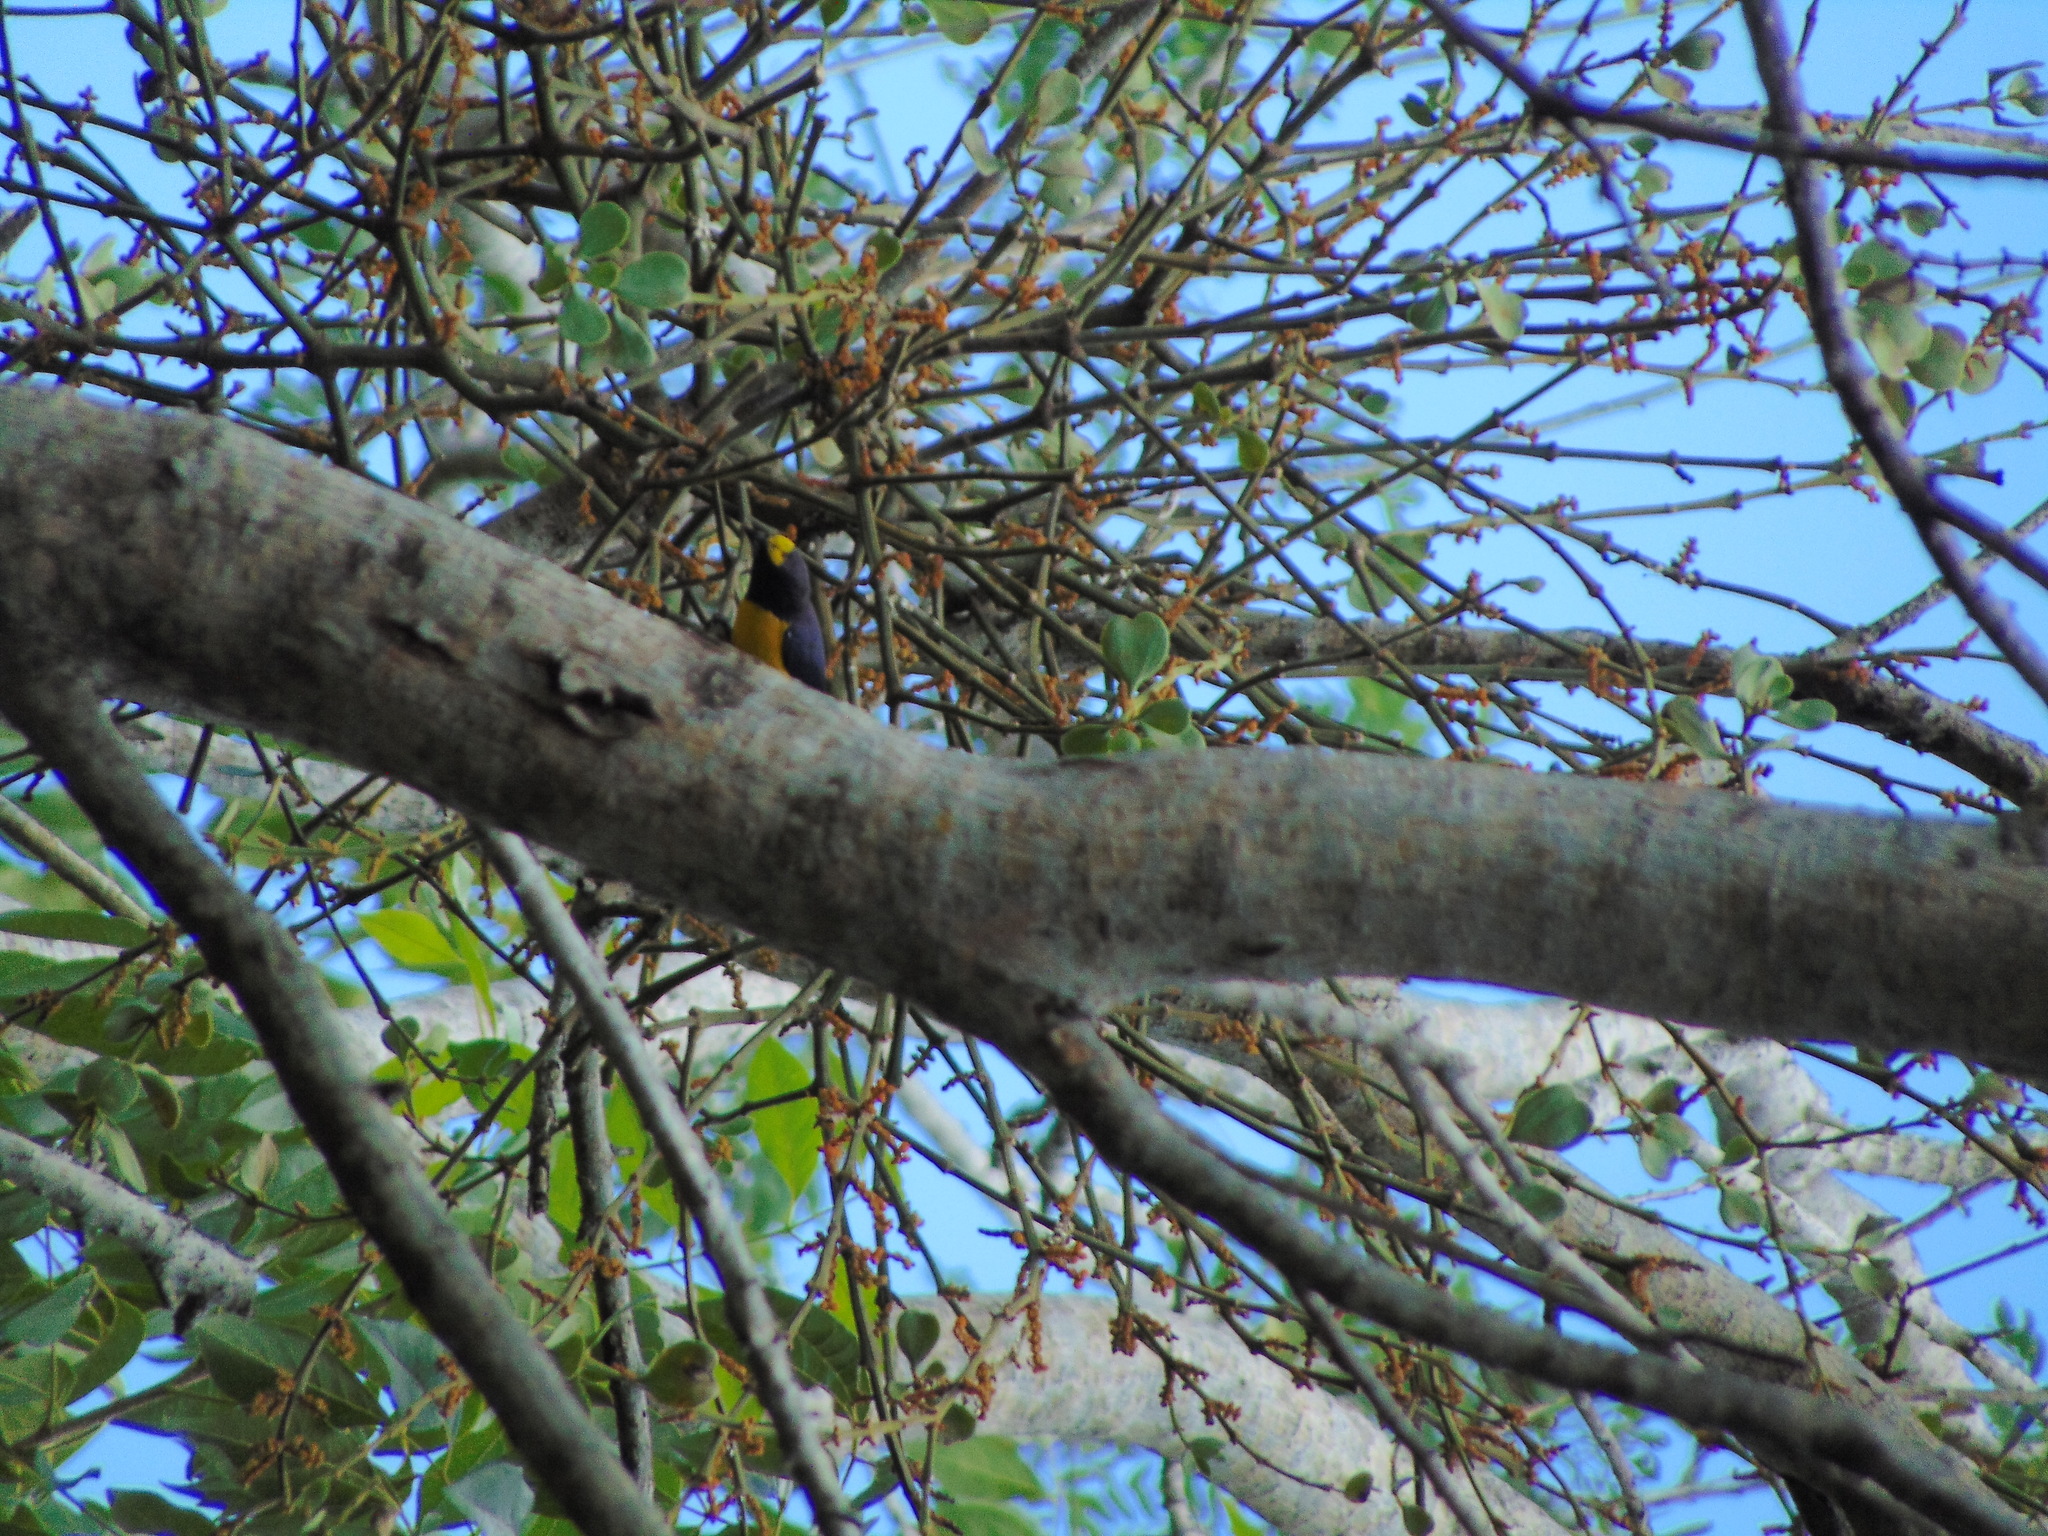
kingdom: Animalia
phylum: Chordata
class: Aves
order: Passeriformes
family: Fringillidae
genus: Euphonia
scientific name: Euphonia affinis
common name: Scrub euphonia
